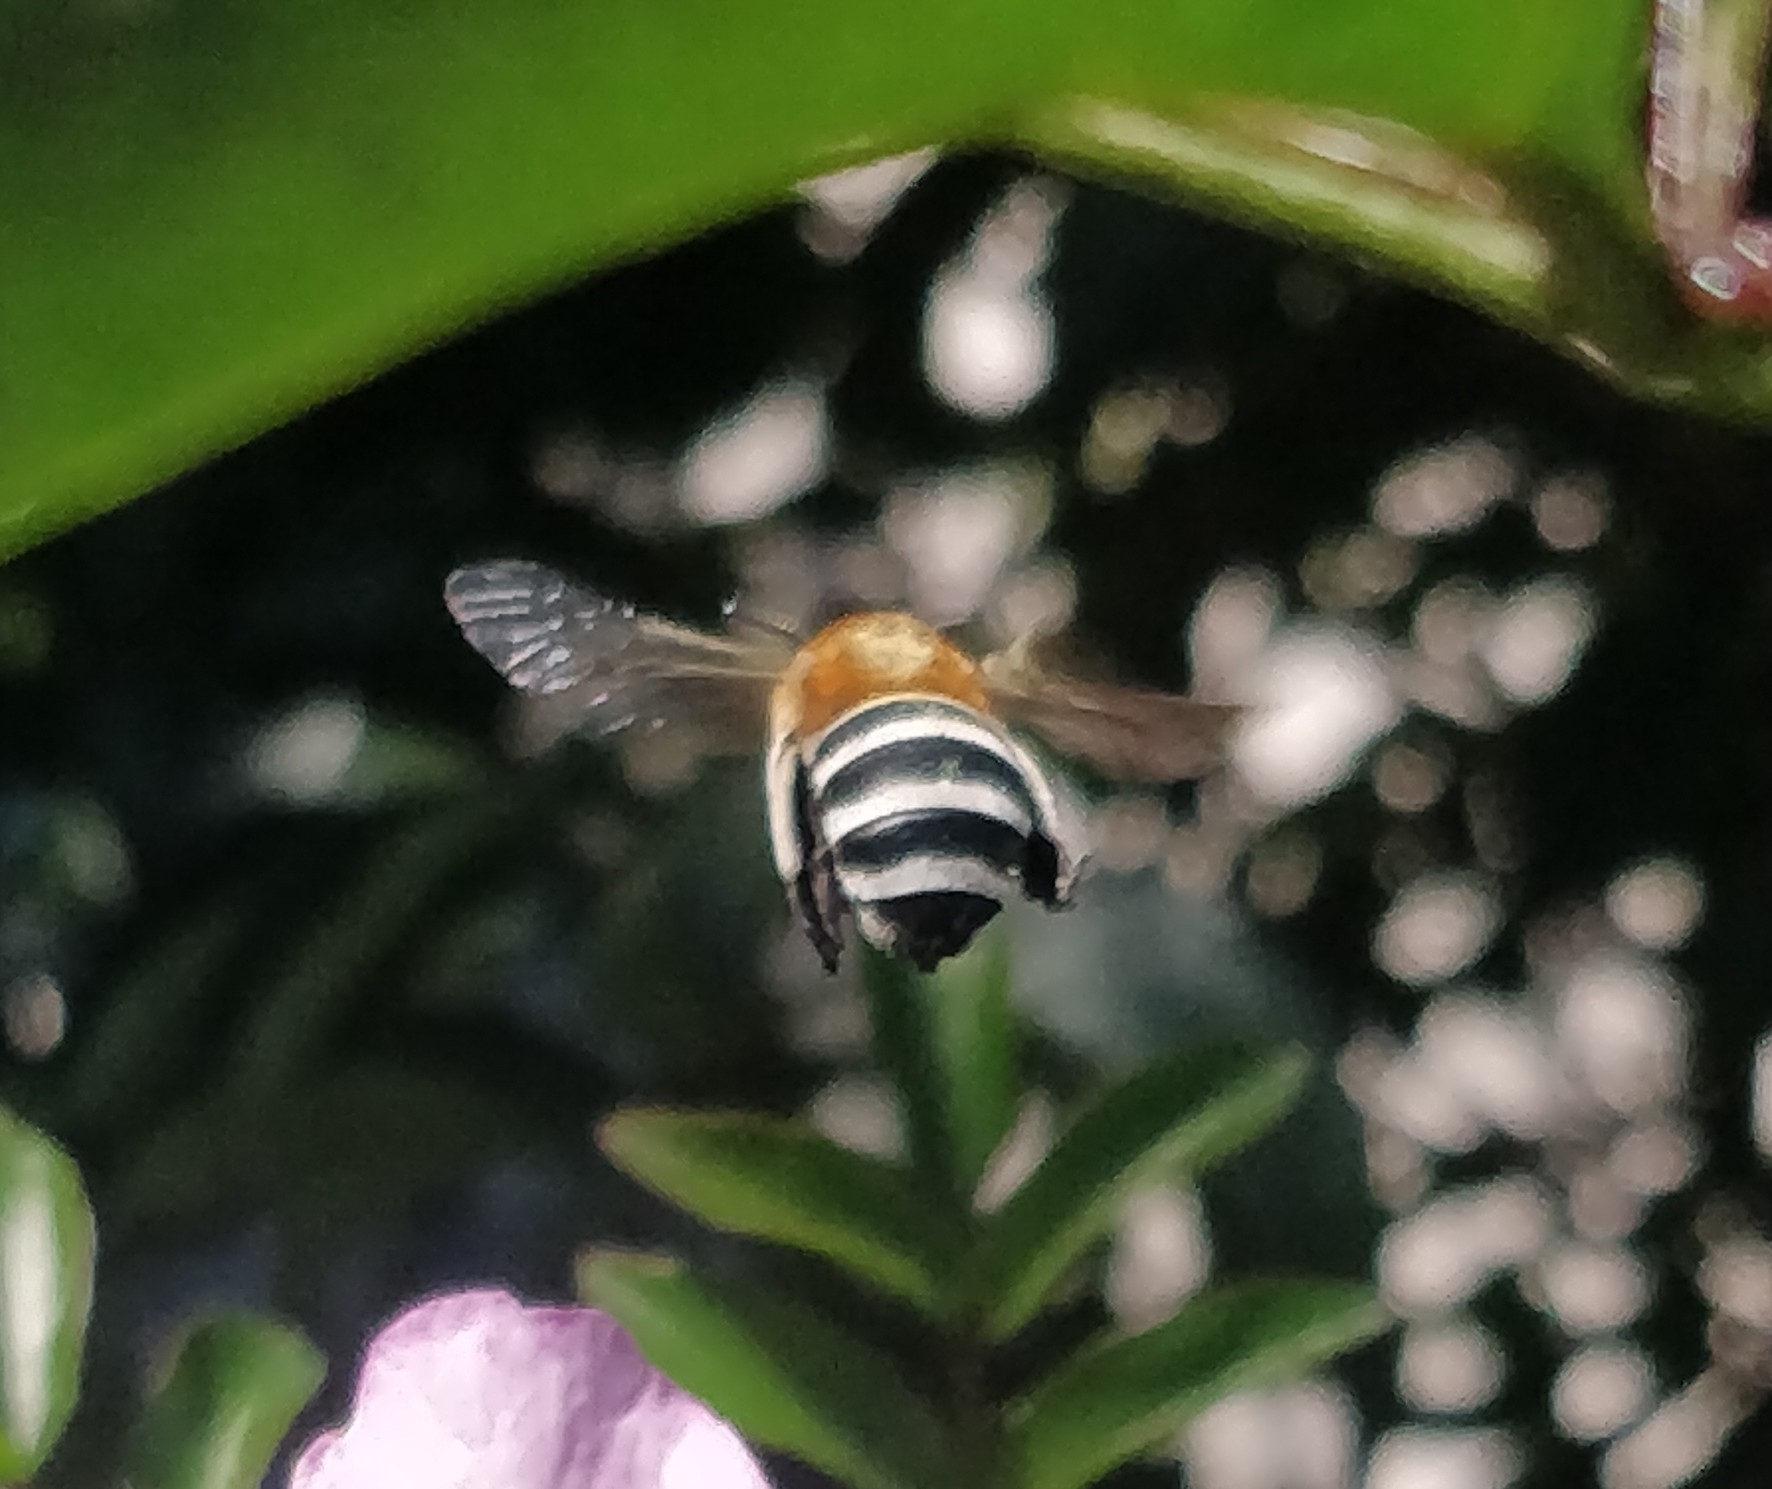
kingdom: Animalia
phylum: Arthropoda
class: Insecta
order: Hymenoptera
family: Apidae
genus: Amegilla
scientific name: Amegilla quadrifasciata
